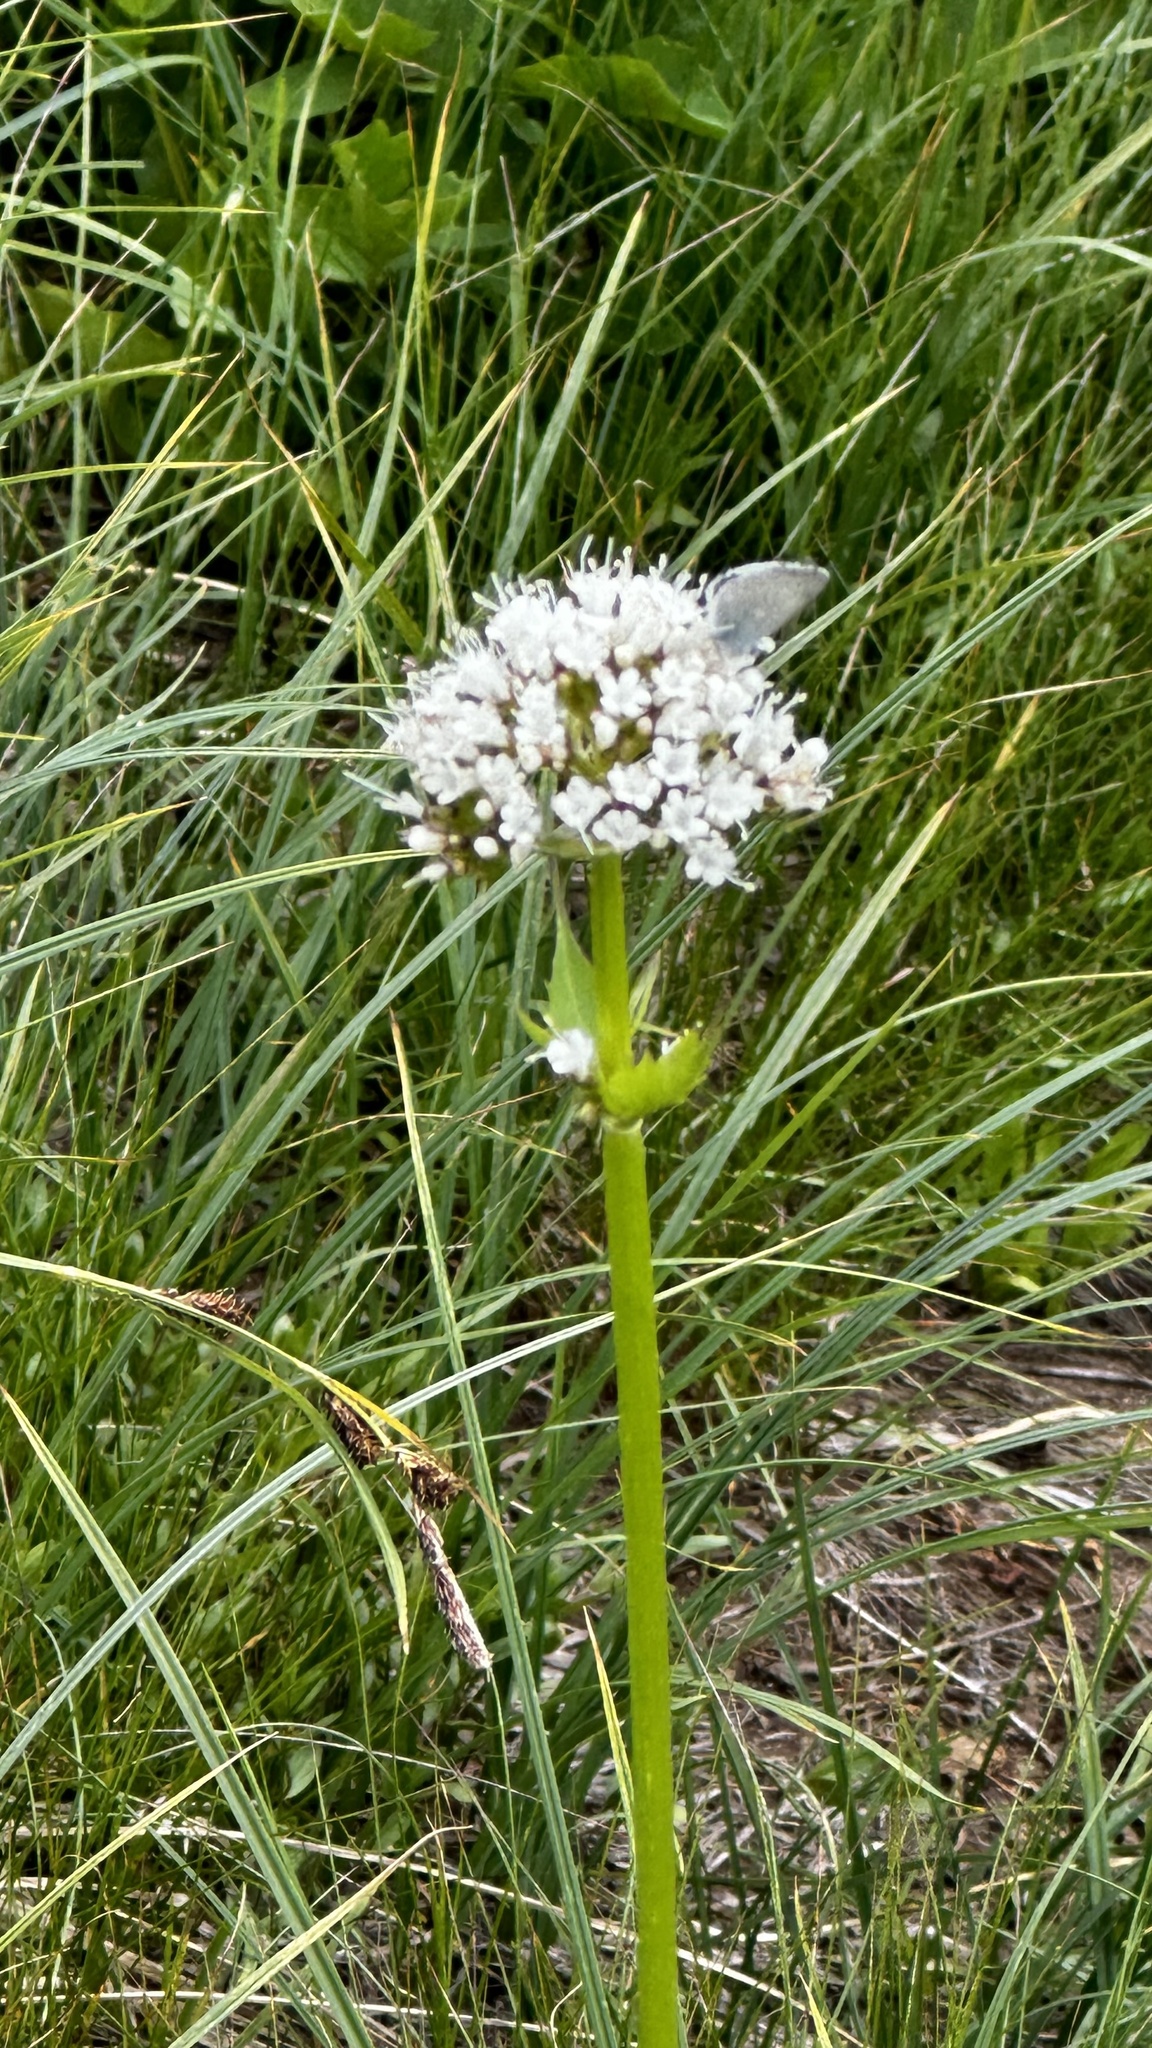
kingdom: Plantae
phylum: Tracheophyta
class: Magnoliopsida
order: Dipsacales
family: Caprifoliaceae
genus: Valeriana
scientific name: Valeriana sitchensis
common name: Pacific valerian
